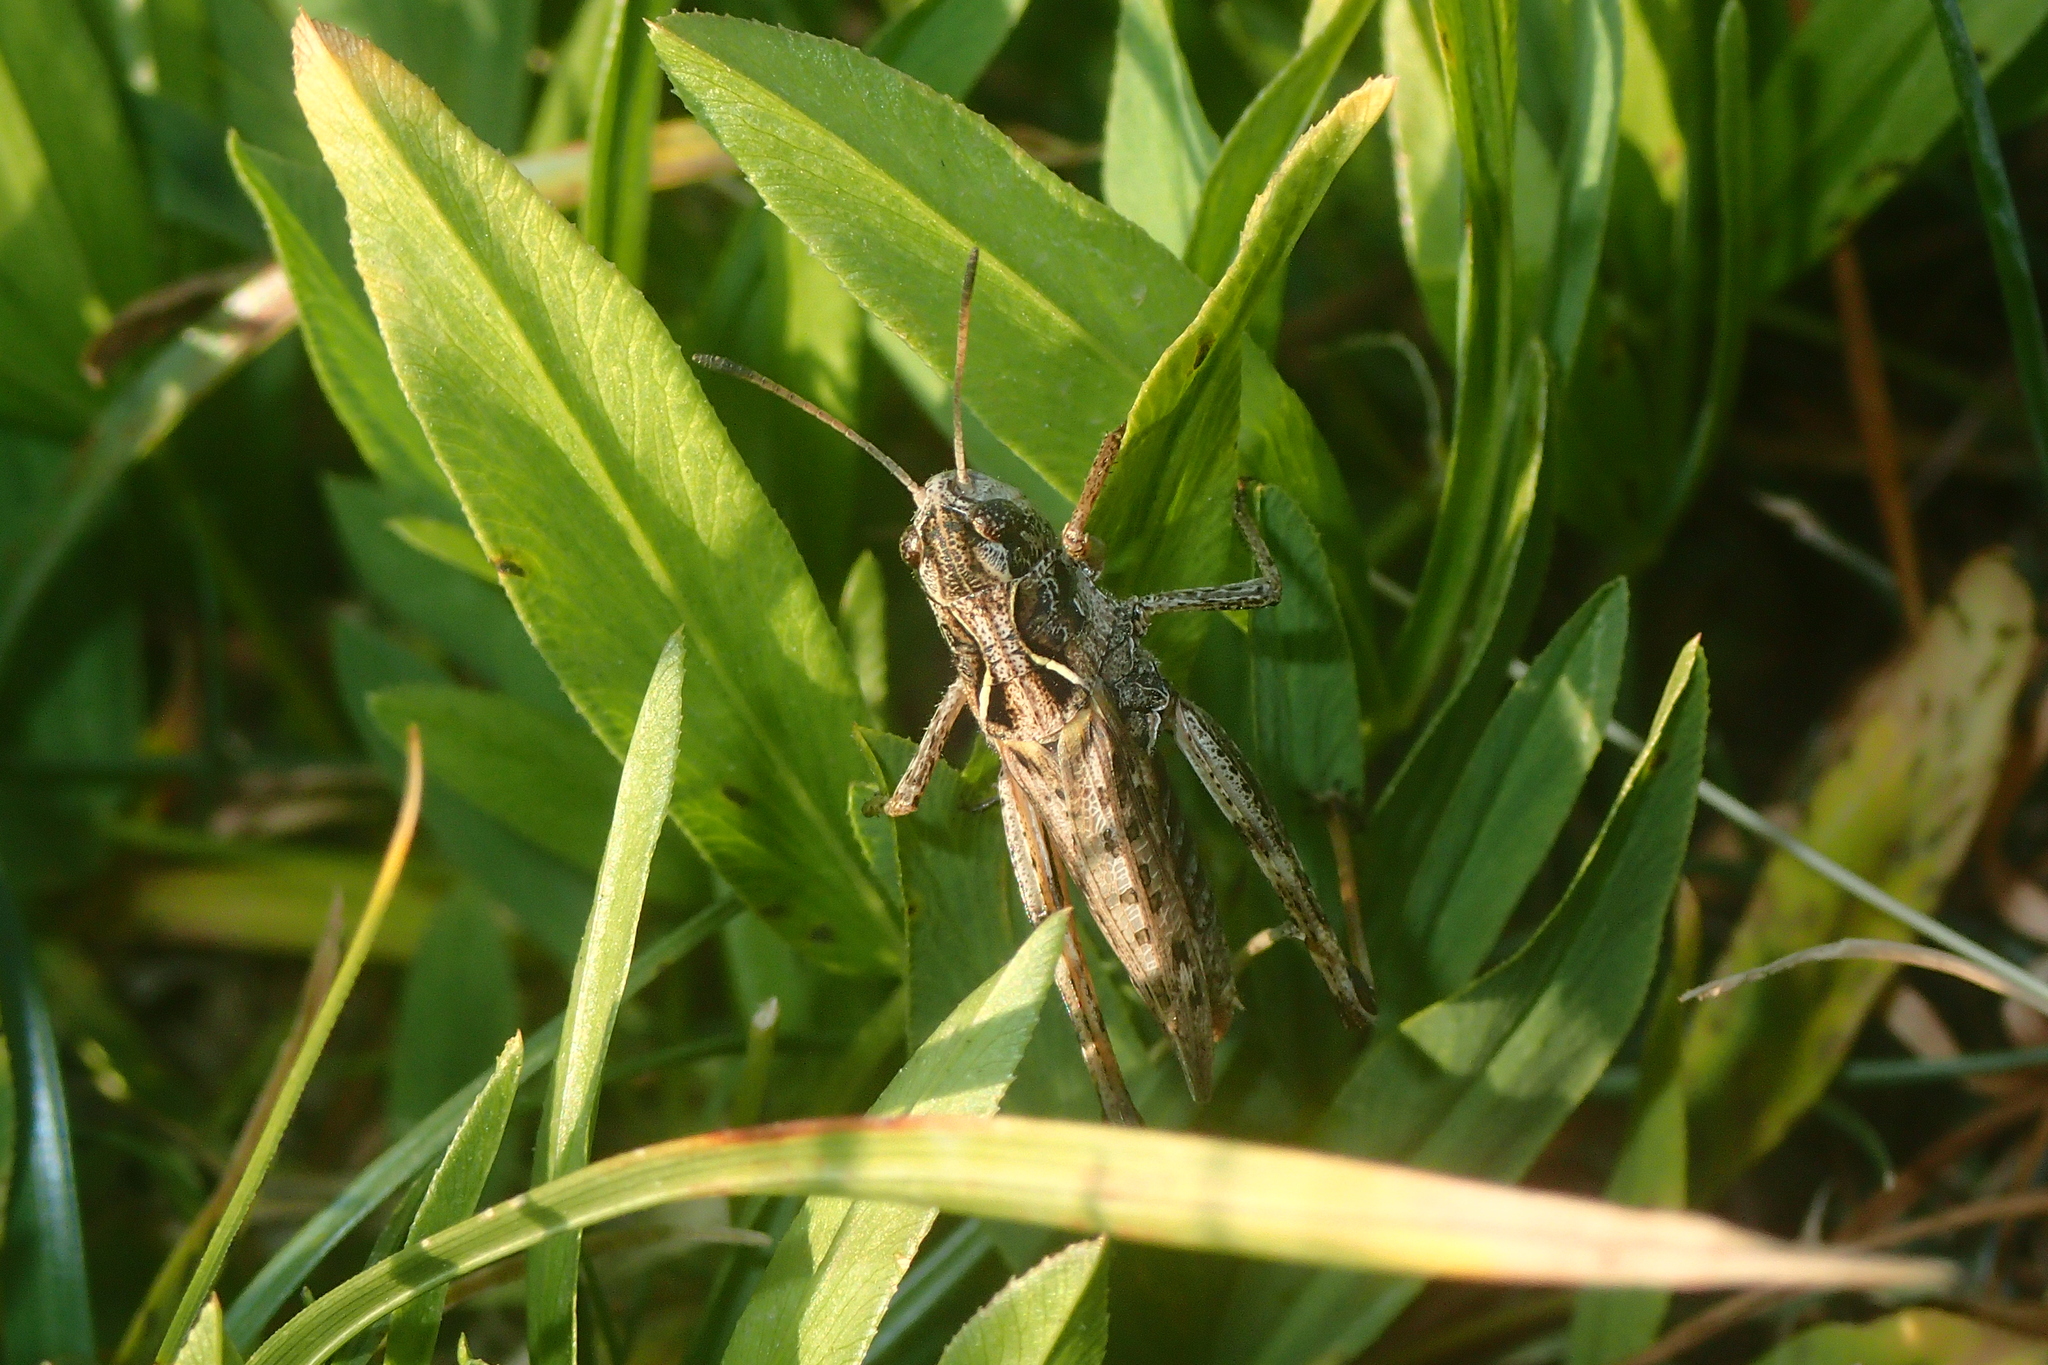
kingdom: Animalia
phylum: Arthropoda
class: Insecta
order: Orthoptera
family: Acrididae
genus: Gomphocerus
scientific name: Gomphocerus sibiricus
